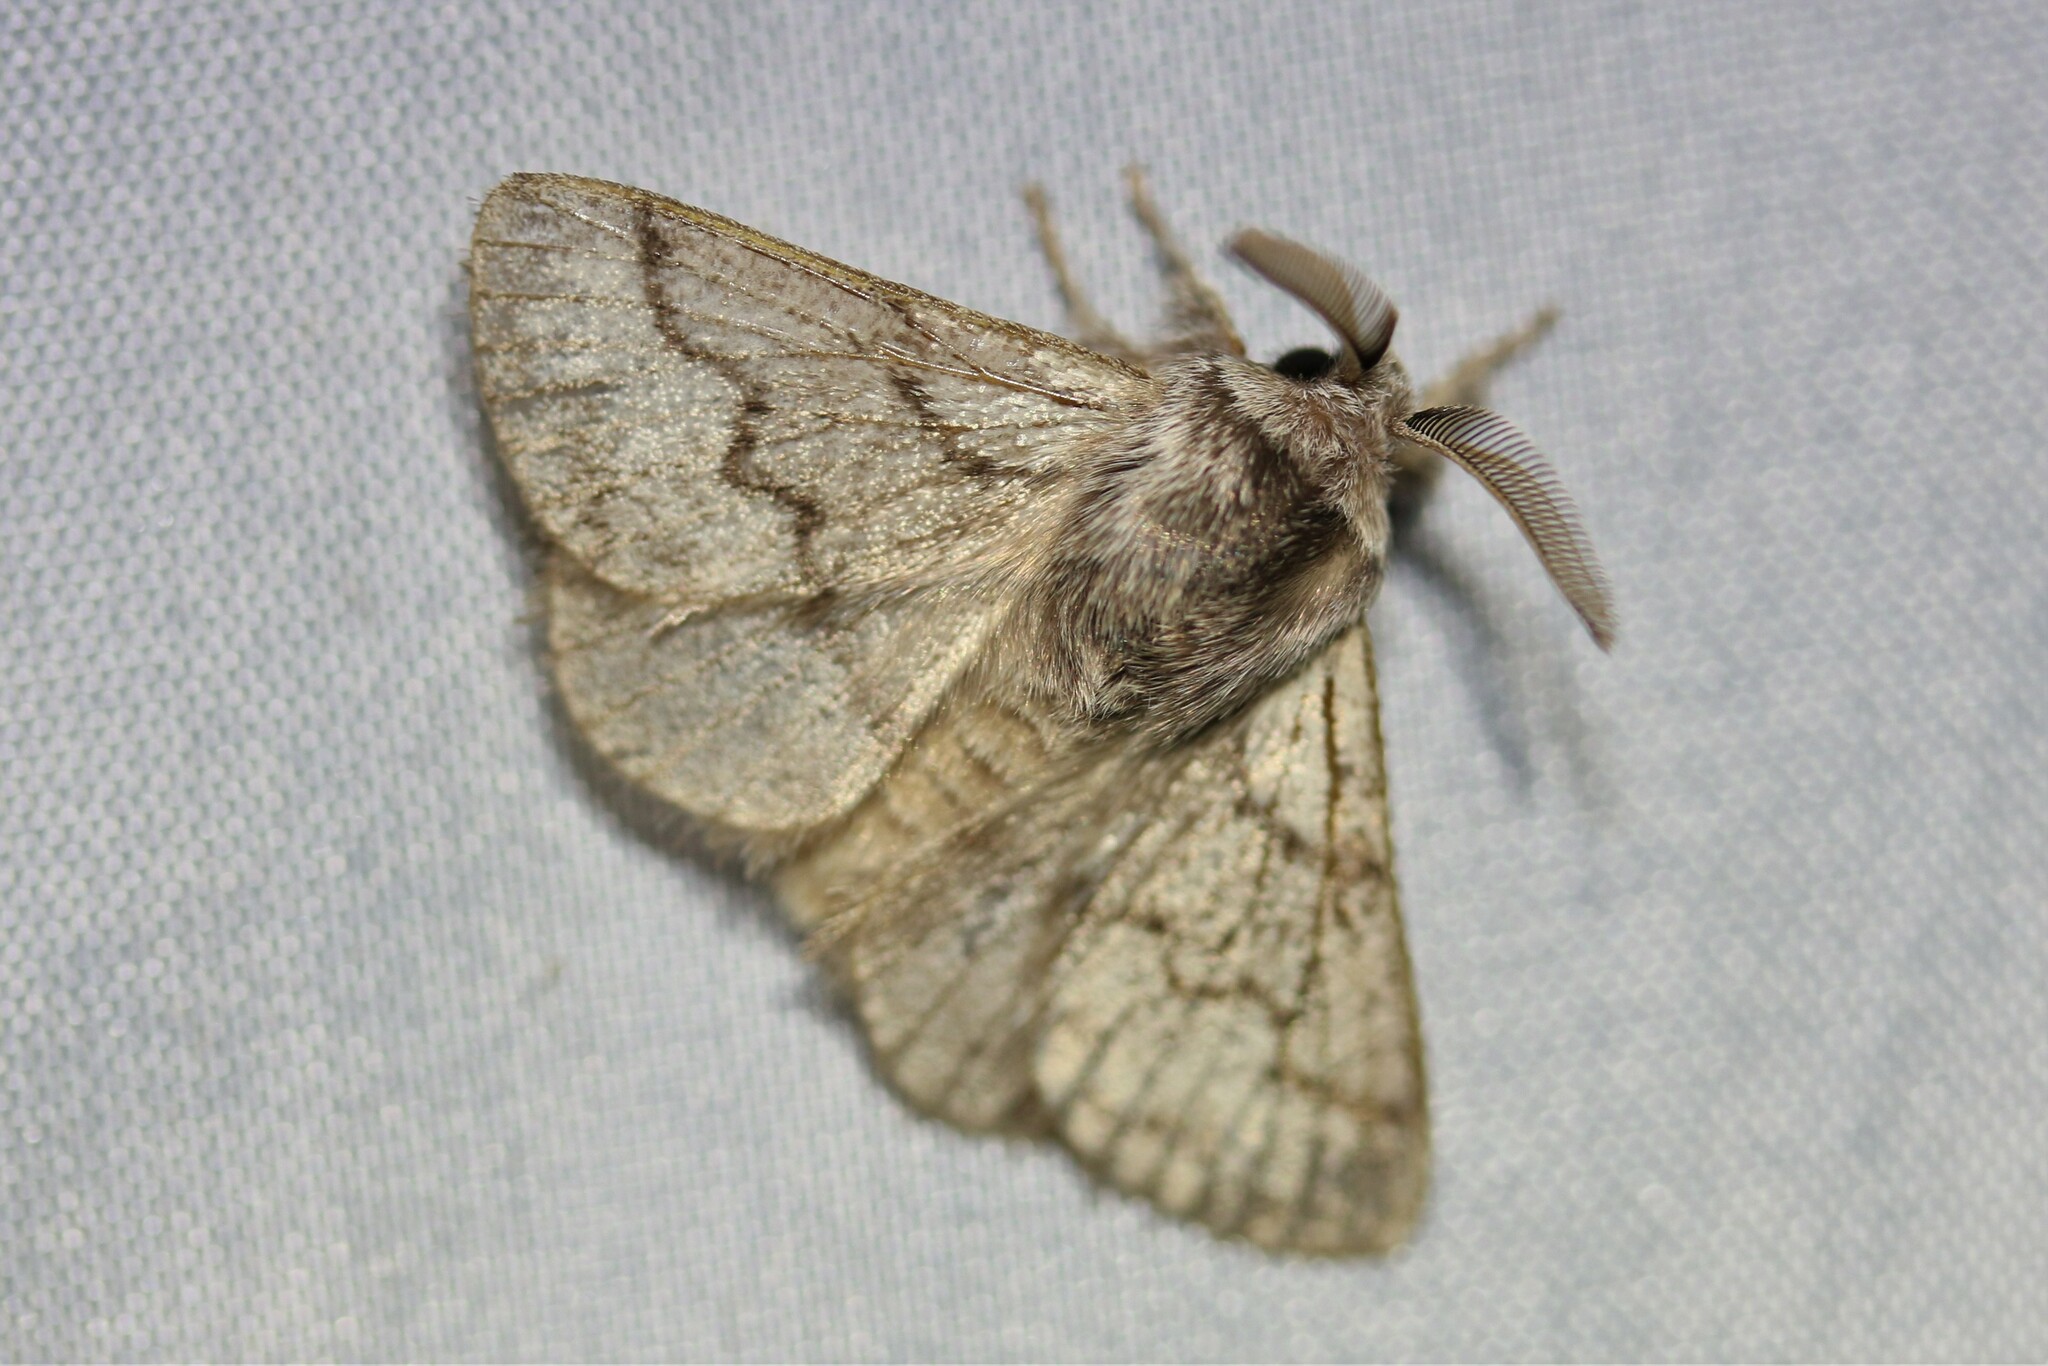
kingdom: Animalia
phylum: Arthropoda
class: Insecta
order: Lepidoptera
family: Lasiocampidae
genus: Trichiura
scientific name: Trichiura crataegi
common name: Pale eggar
